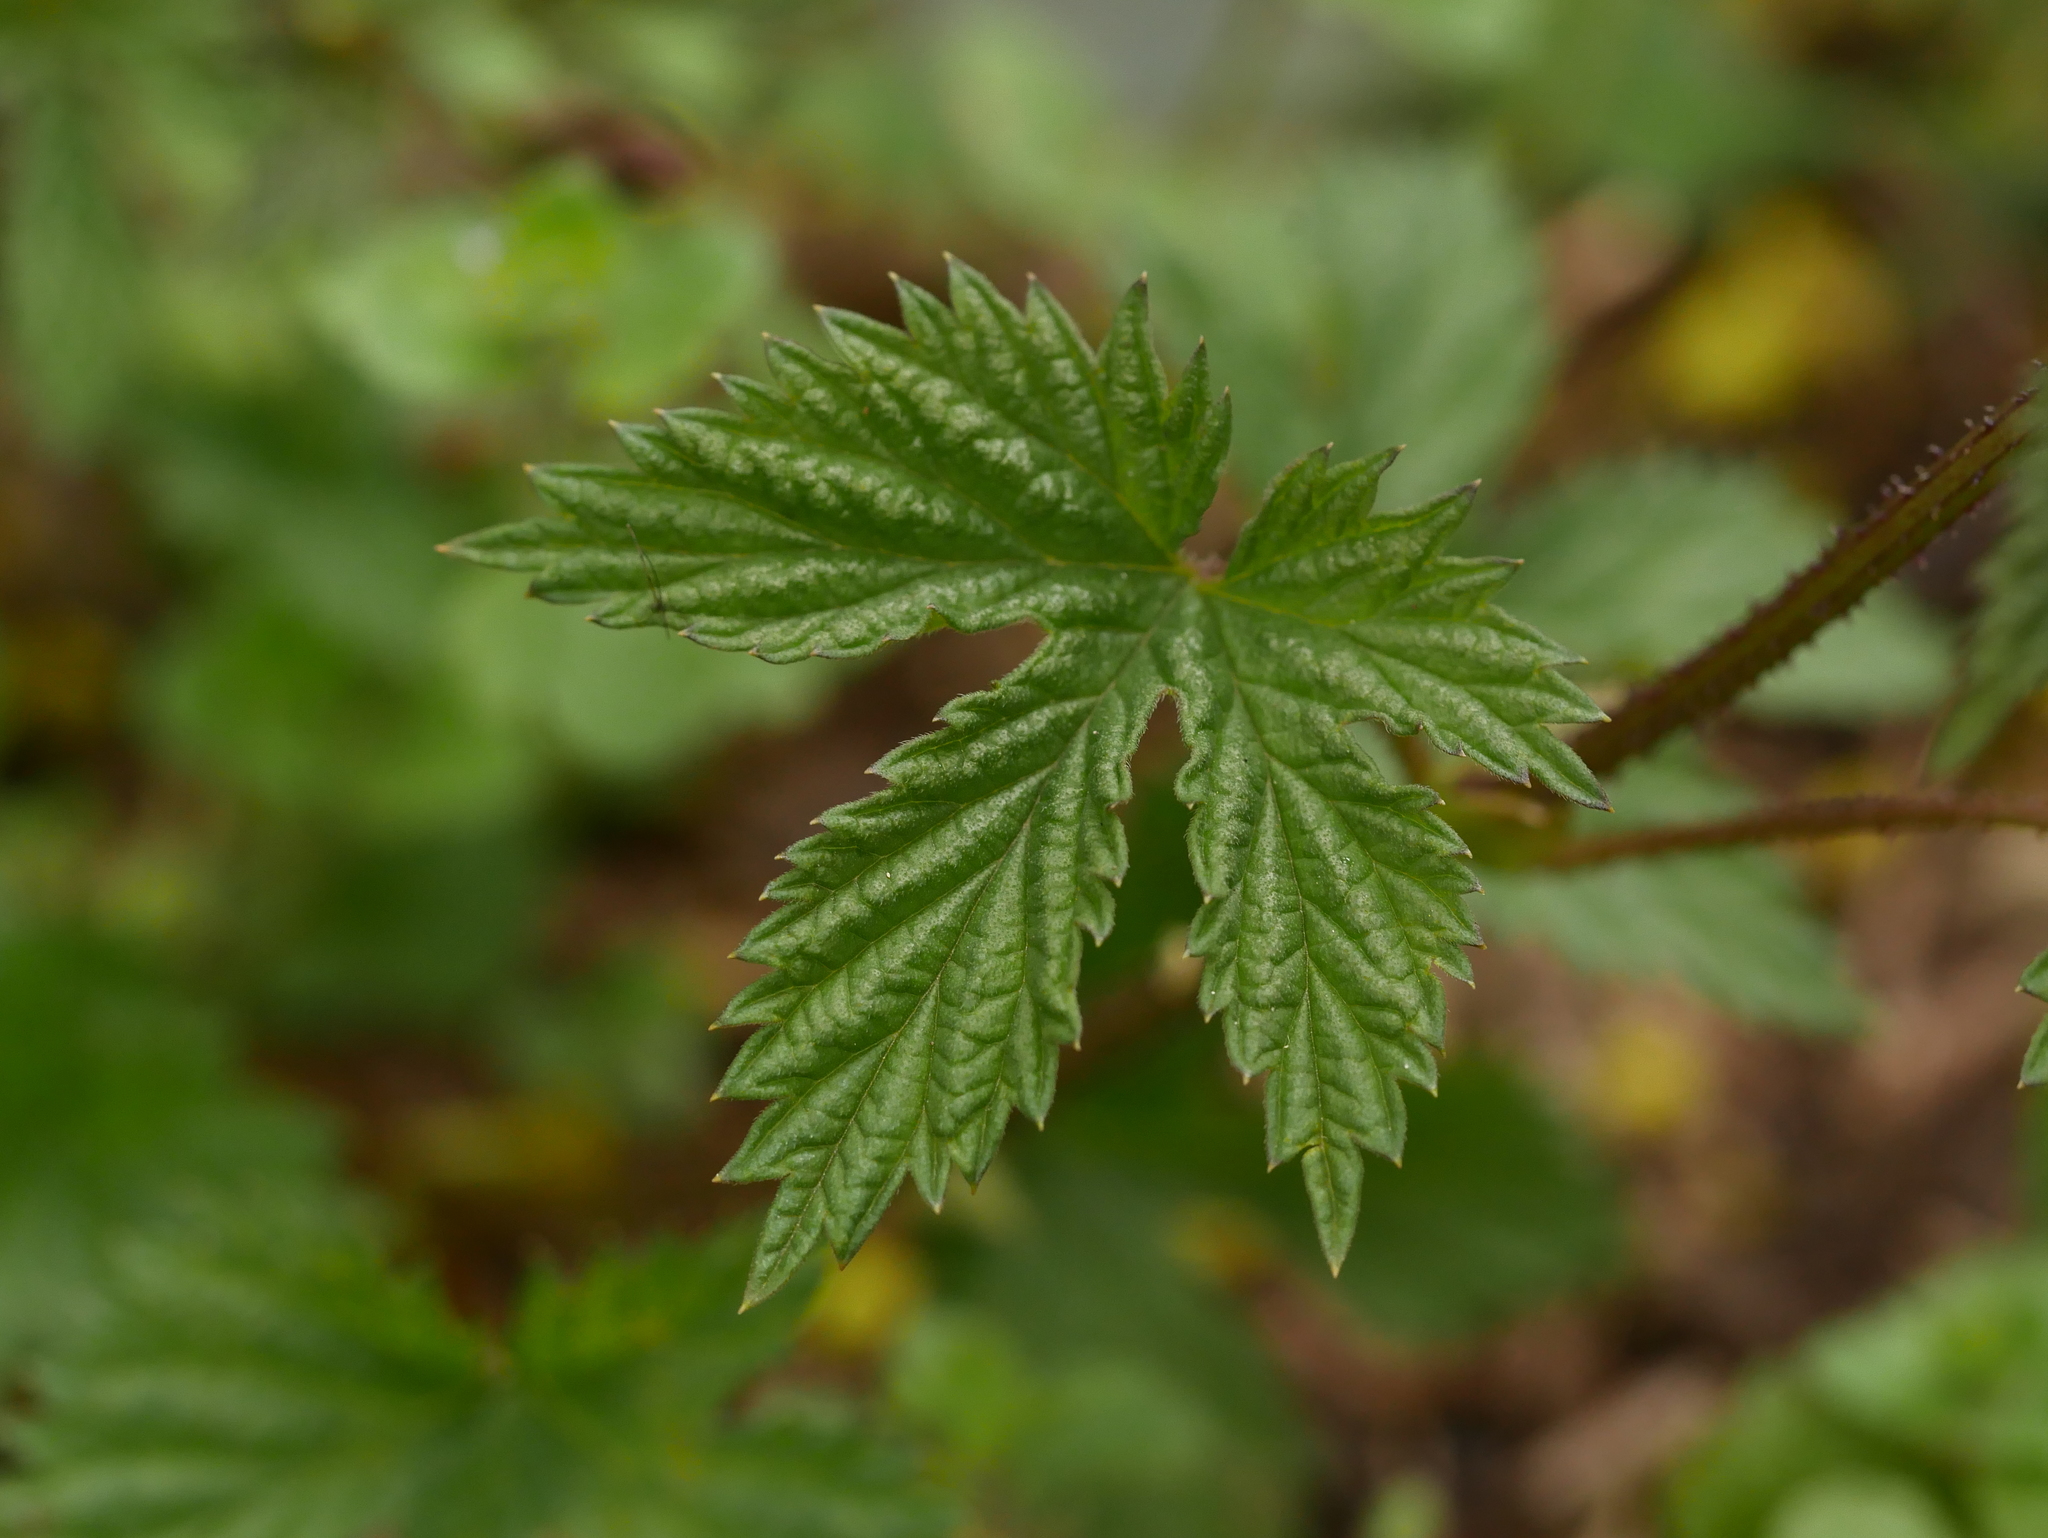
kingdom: Plantae
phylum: Tracheophyta
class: Magnoliopsida
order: Rosales
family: Cannabaceae
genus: Humulus
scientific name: Humulus lupulus
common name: Hop
